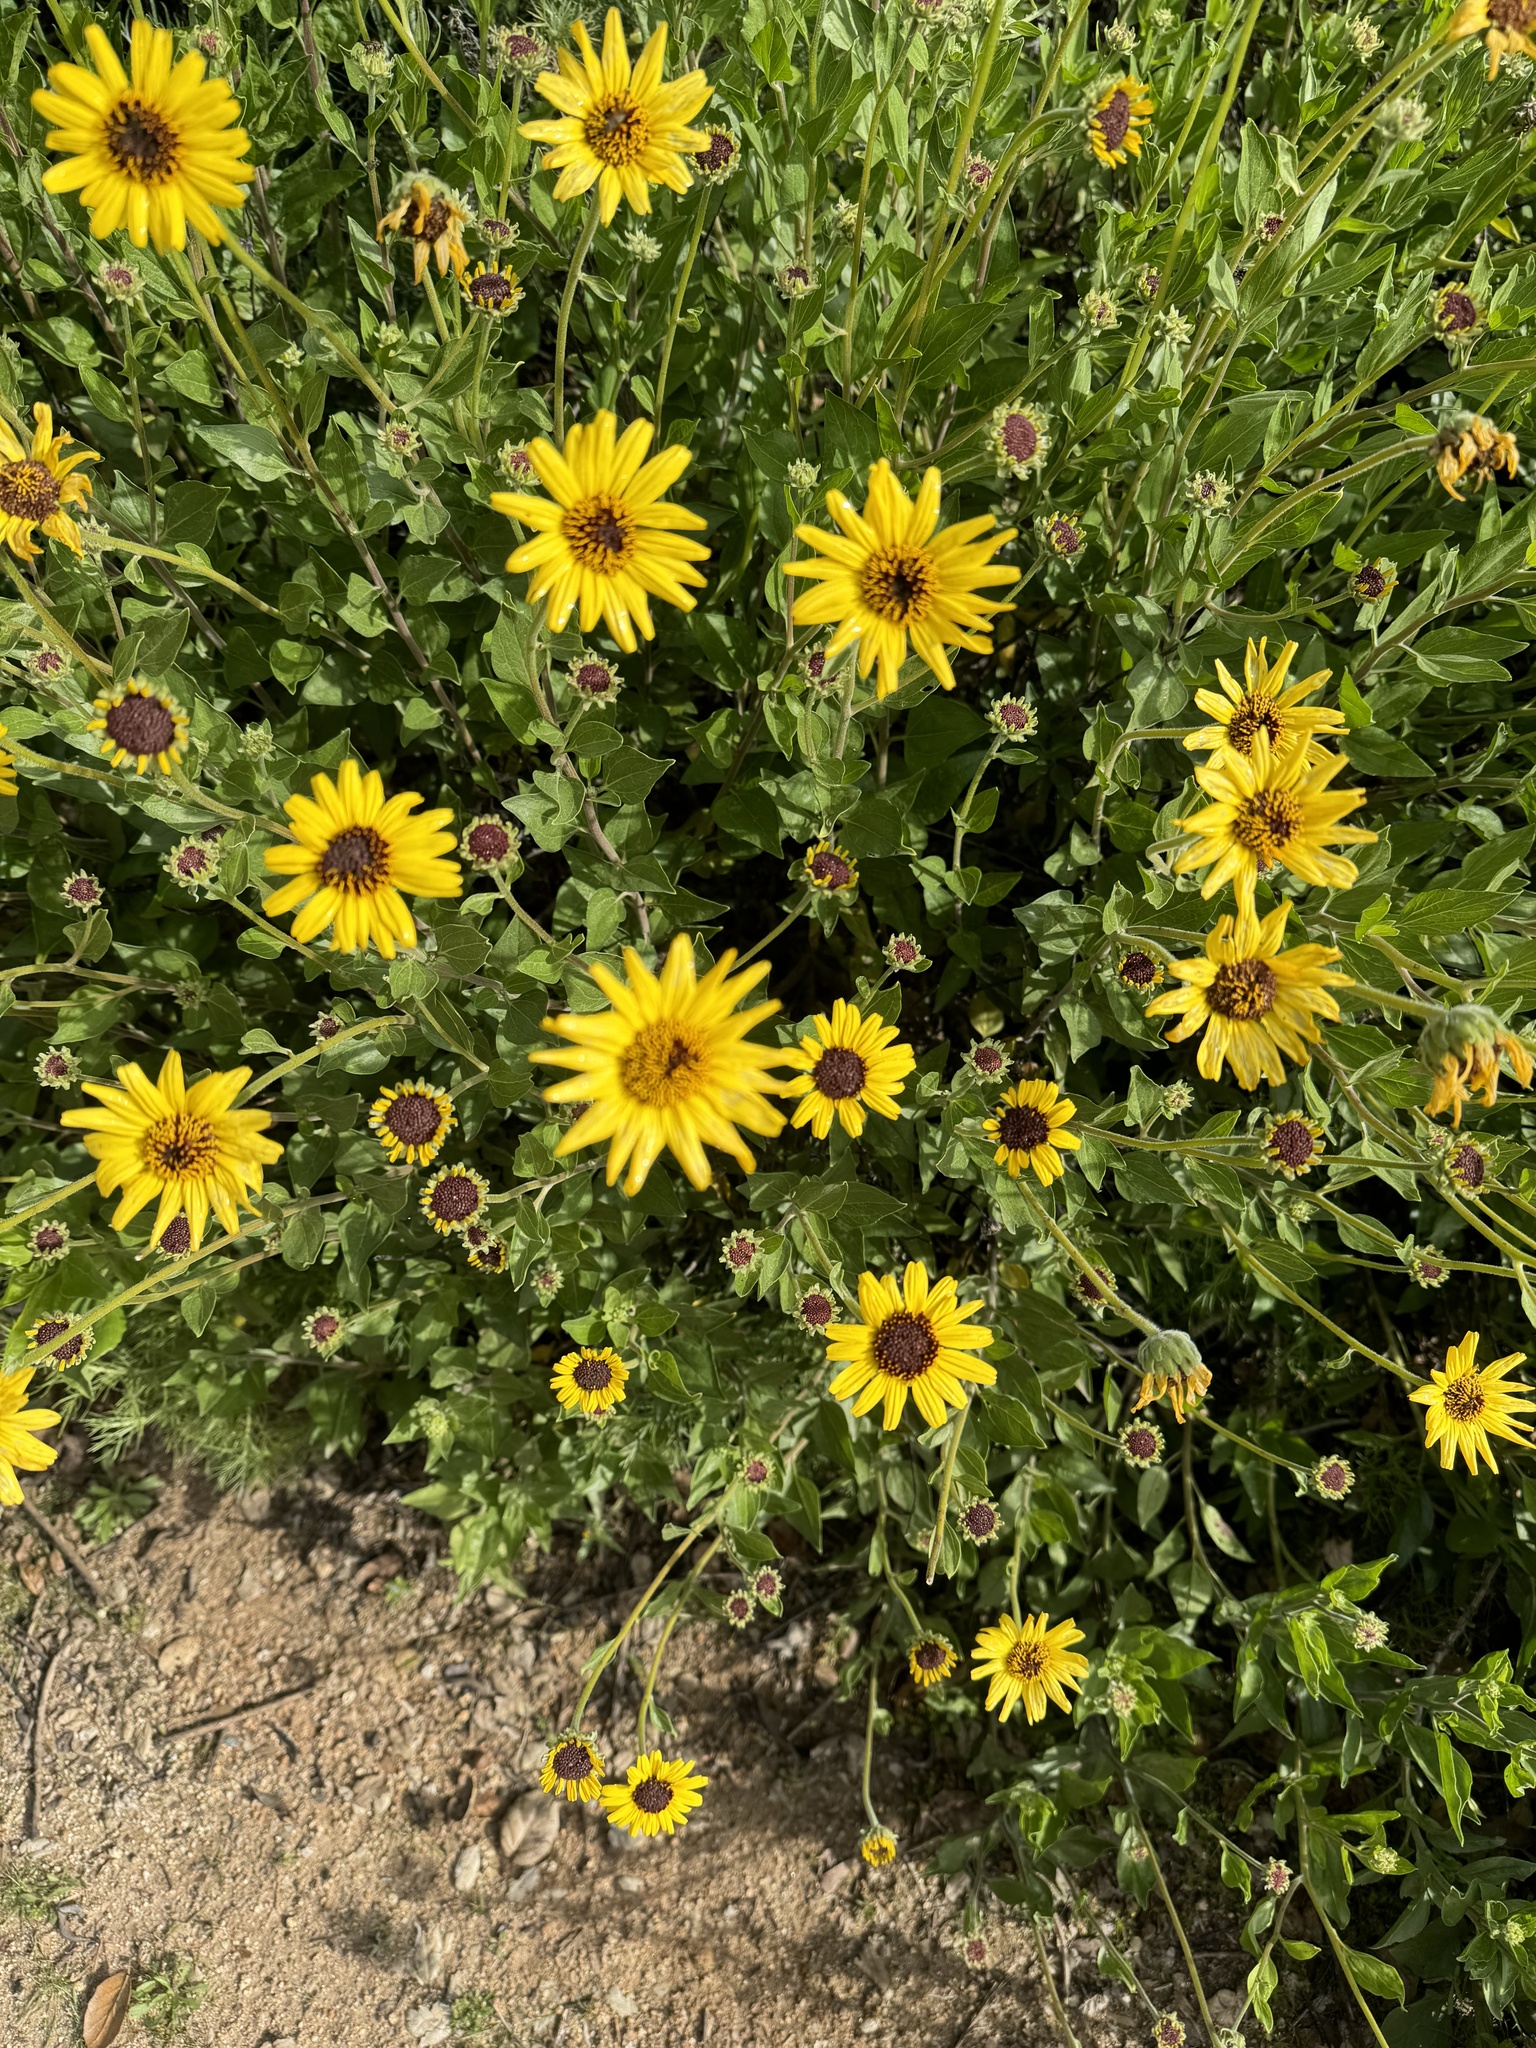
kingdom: Plantae
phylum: Tracheophyta
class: Magnoliopsida
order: Asterales
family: Asteraceae
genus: Encelia
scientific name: Encelia californica
